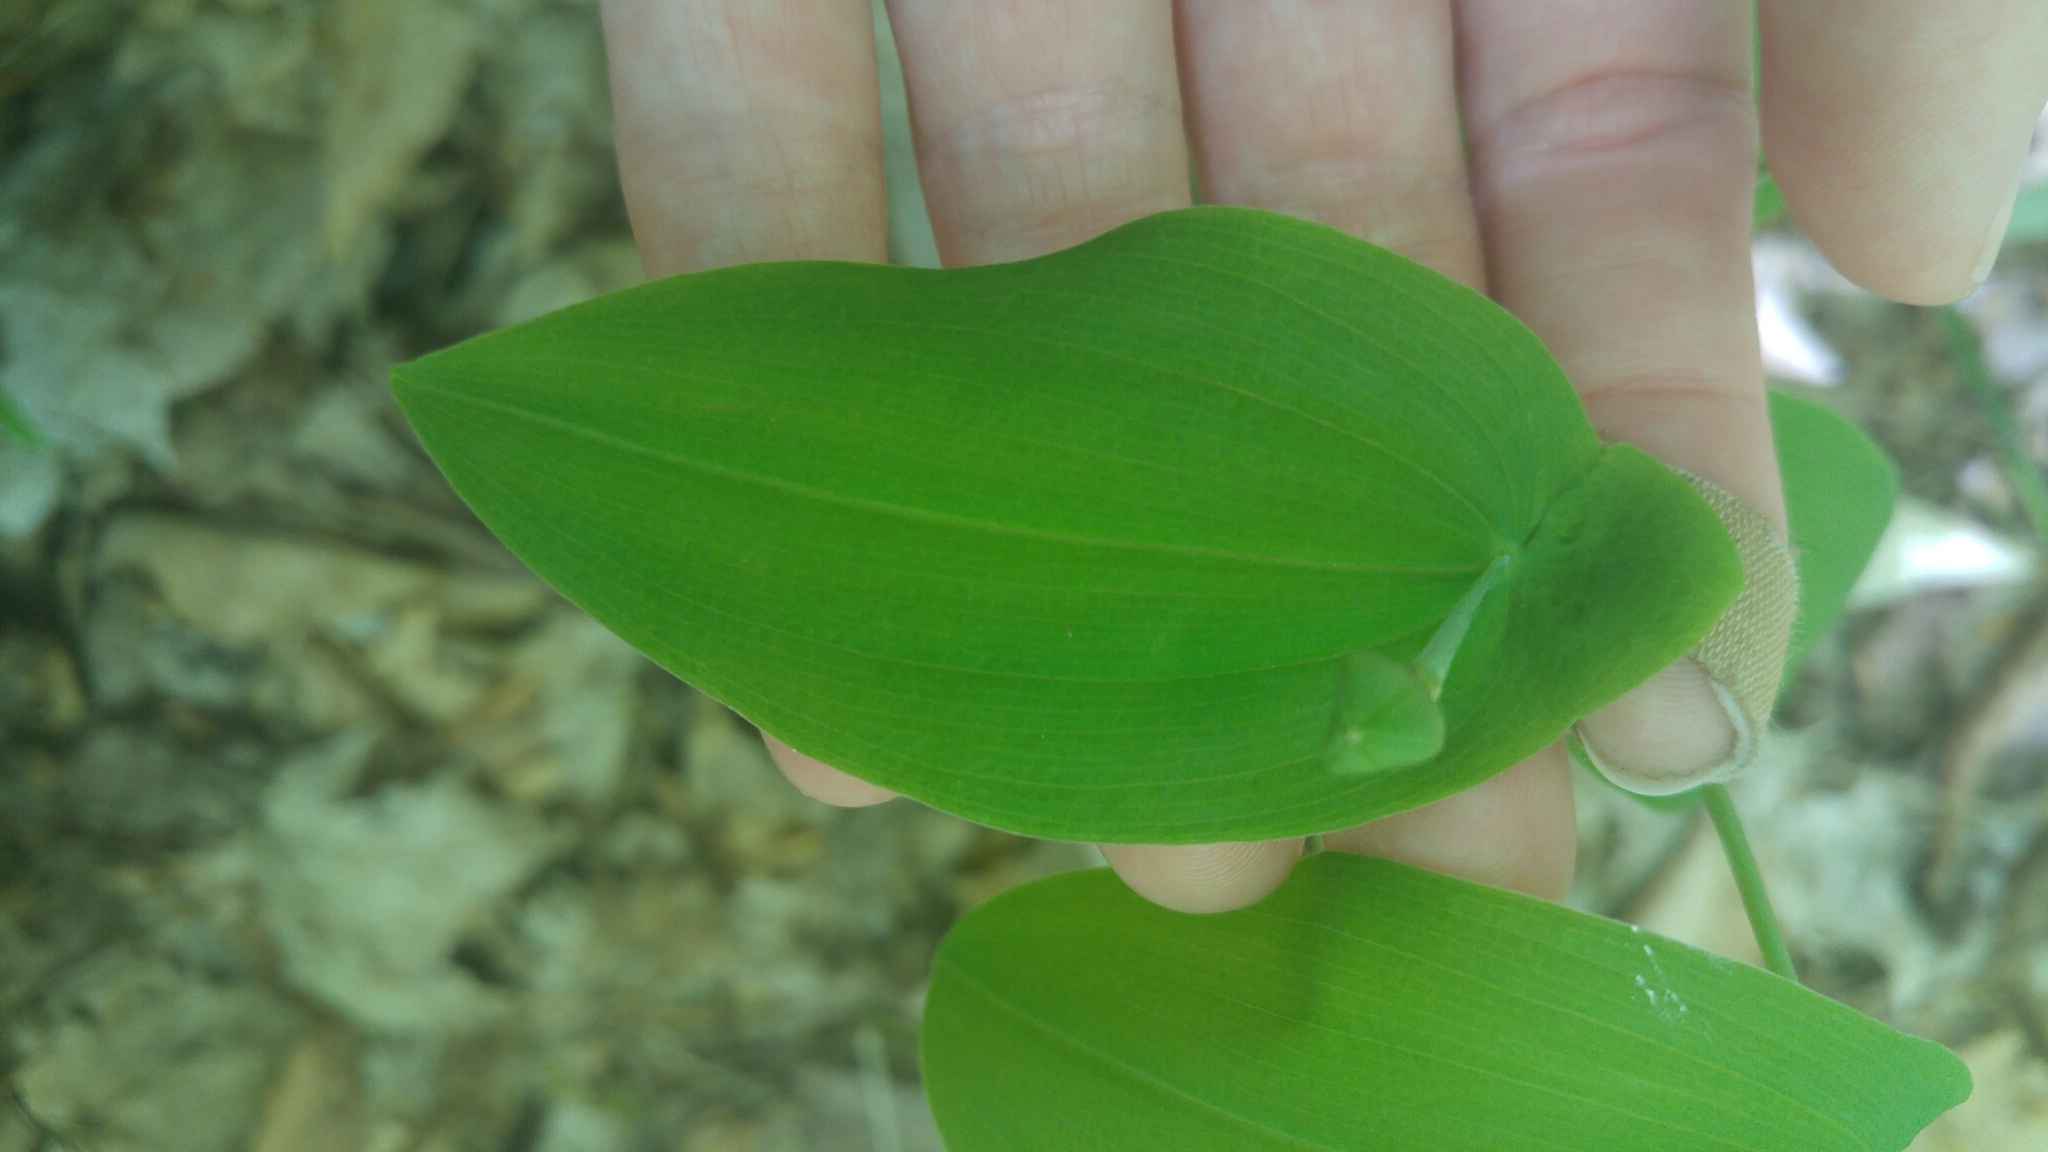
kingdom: Plantae
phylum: Tracheophyta
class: Liliopsida
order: Liliales
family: Colchicaceae
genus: Uvularia
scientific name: Uvularia grandiflora
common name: Bellwort
